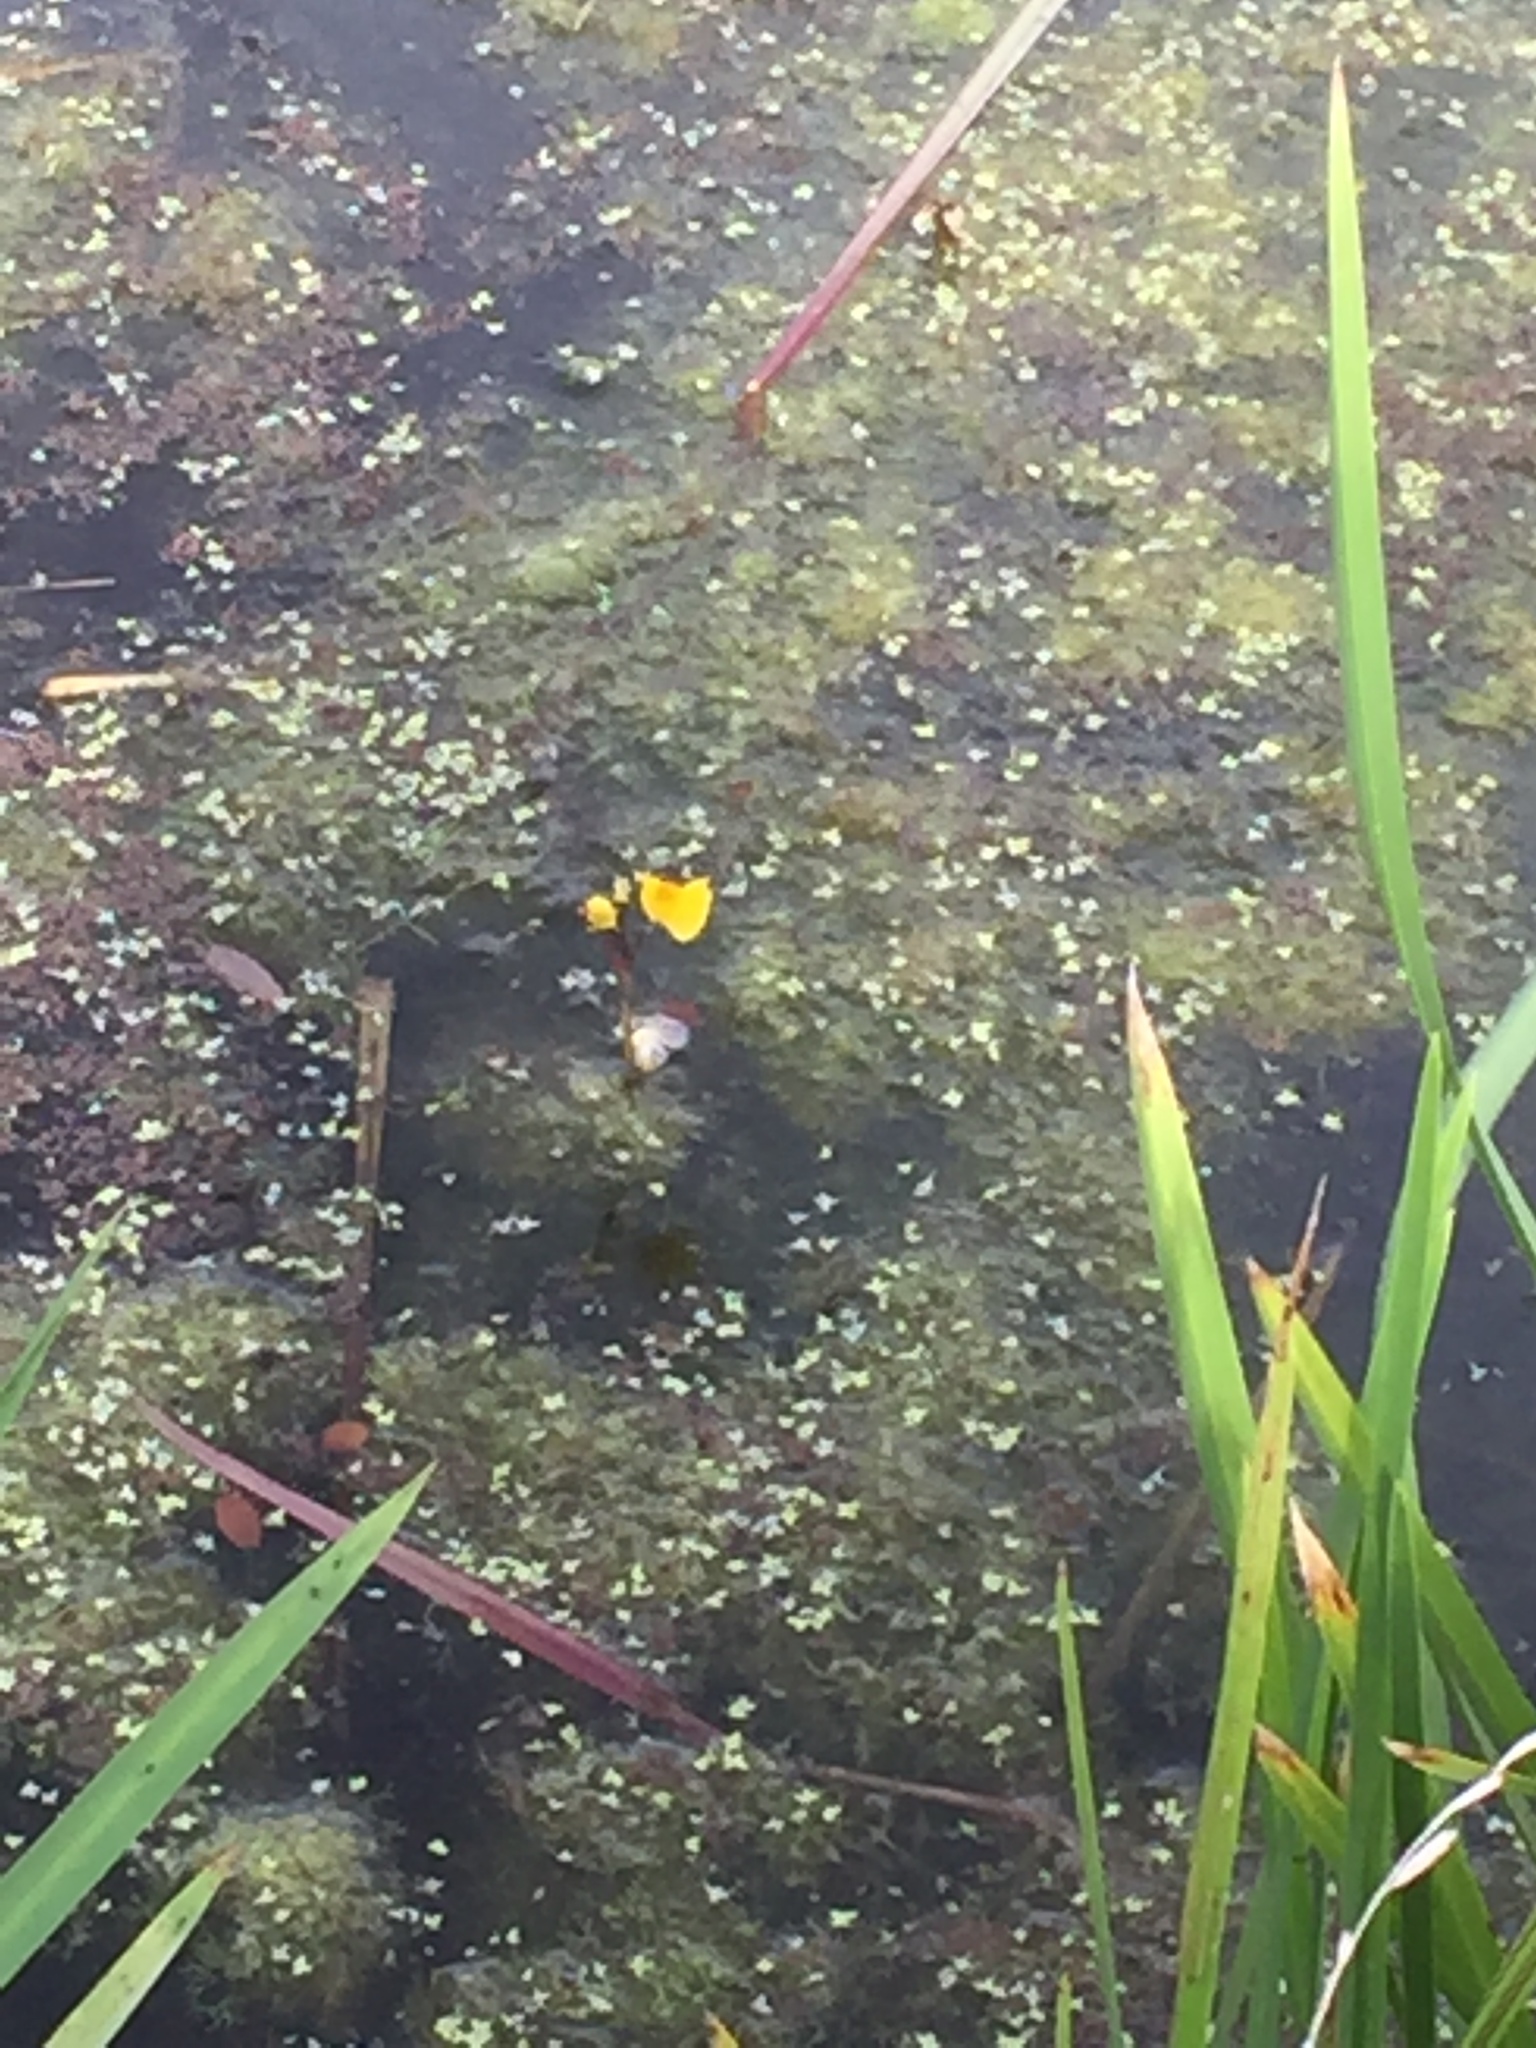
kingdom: Plantae
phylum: Tracheophyta
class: Magnoliopsida
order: Lamiales
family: Lentibulariaceae
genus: Utricularia
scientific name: Utricularia vulgaris
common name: Greater bladderwort
